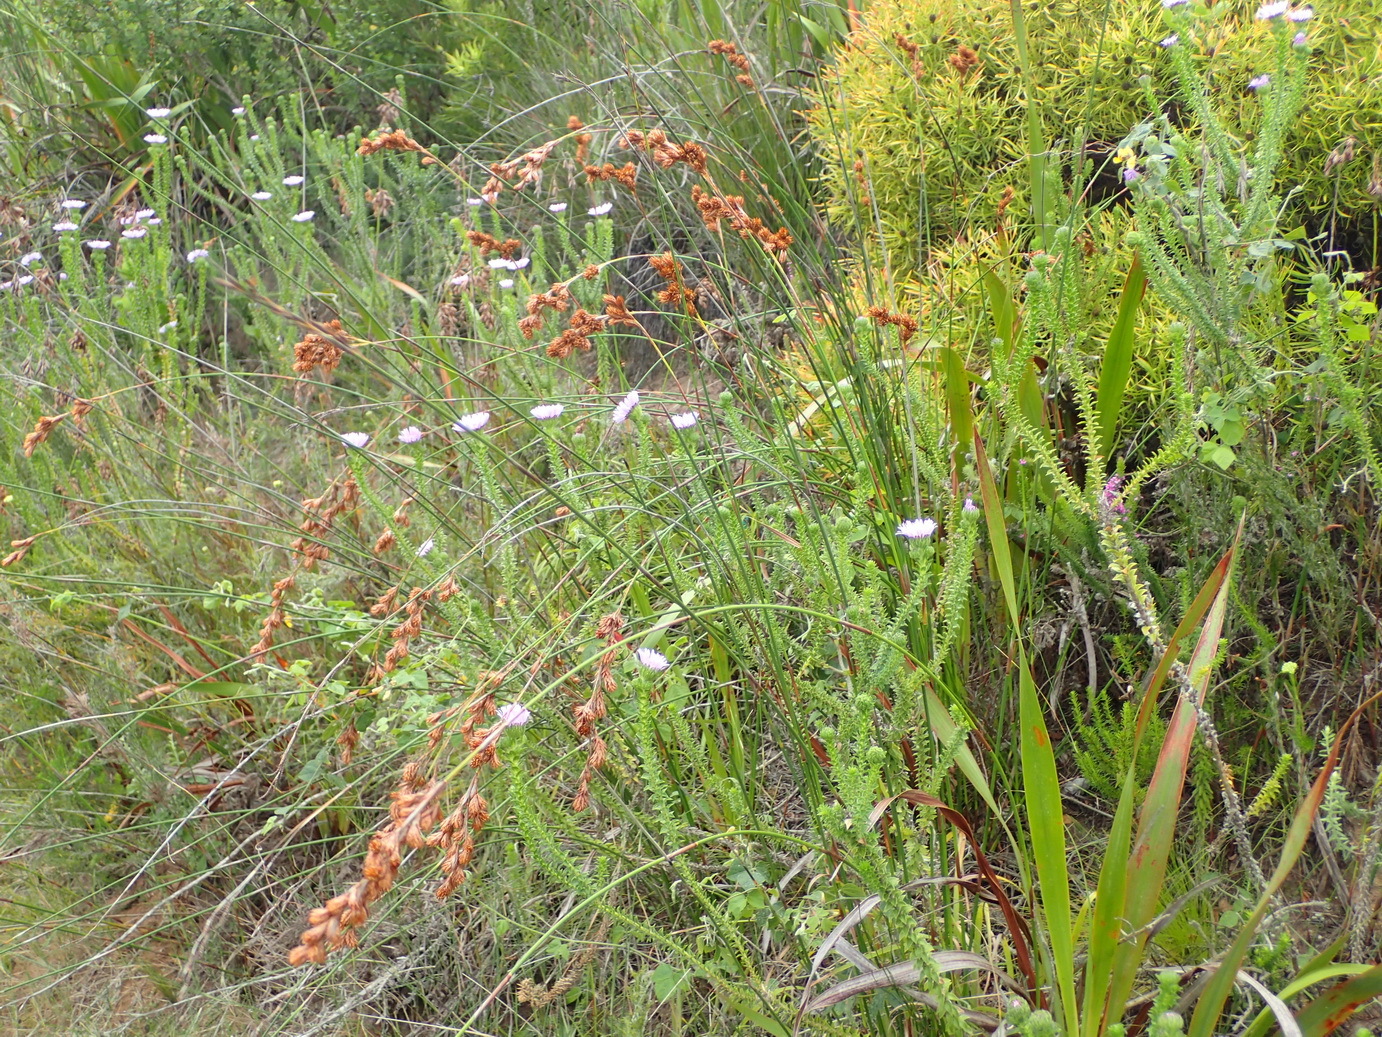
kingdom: Plantae
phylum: Tracheophyta
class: Liliopsida
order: Poales
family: Restionaceae
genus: Thamnochortus
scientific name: Thamnochortus glaber
